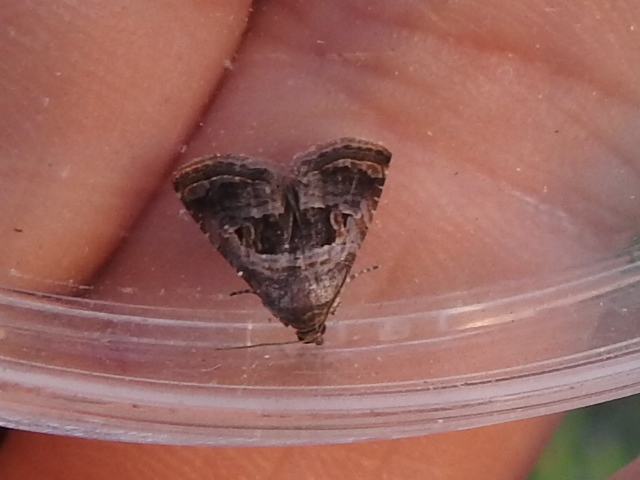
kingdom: Animalia
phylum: Arthropoda
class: Insecta
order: Lepidoptera
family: Noctuidae
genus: Tripudia
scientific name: Tripudia quadrifera
